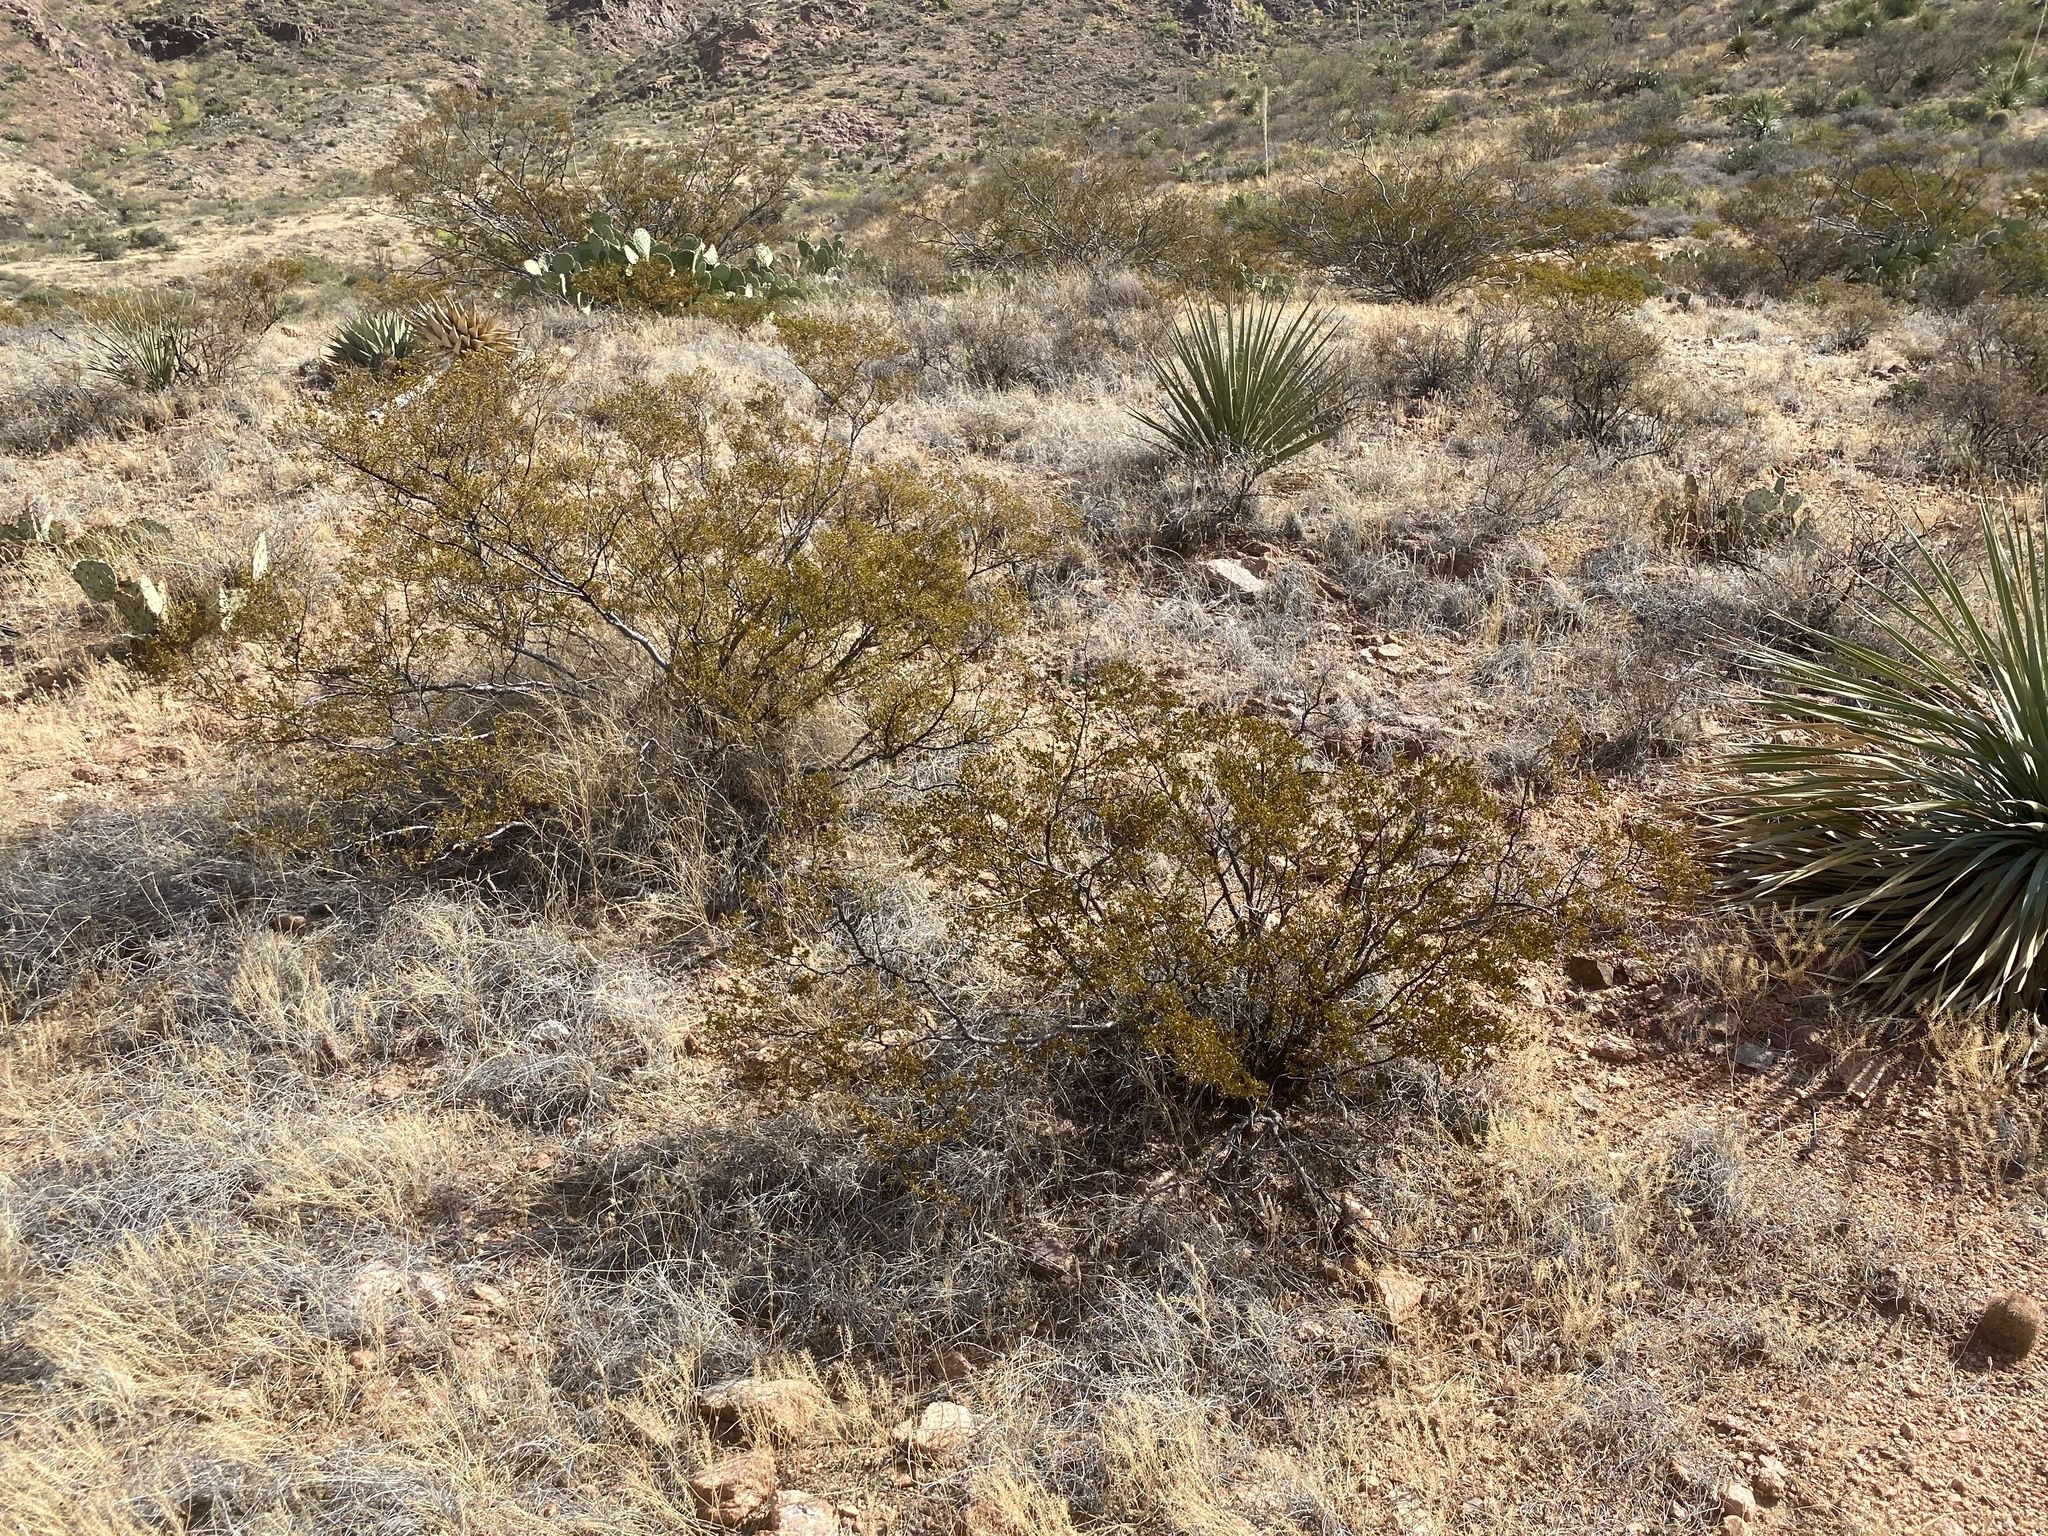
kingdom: Plantae
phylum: Tracheophyta
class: Magnoliopsida
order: Zygophyllales
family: Zygophyllaceae
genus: Larrea
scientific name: Larrea tridentata
